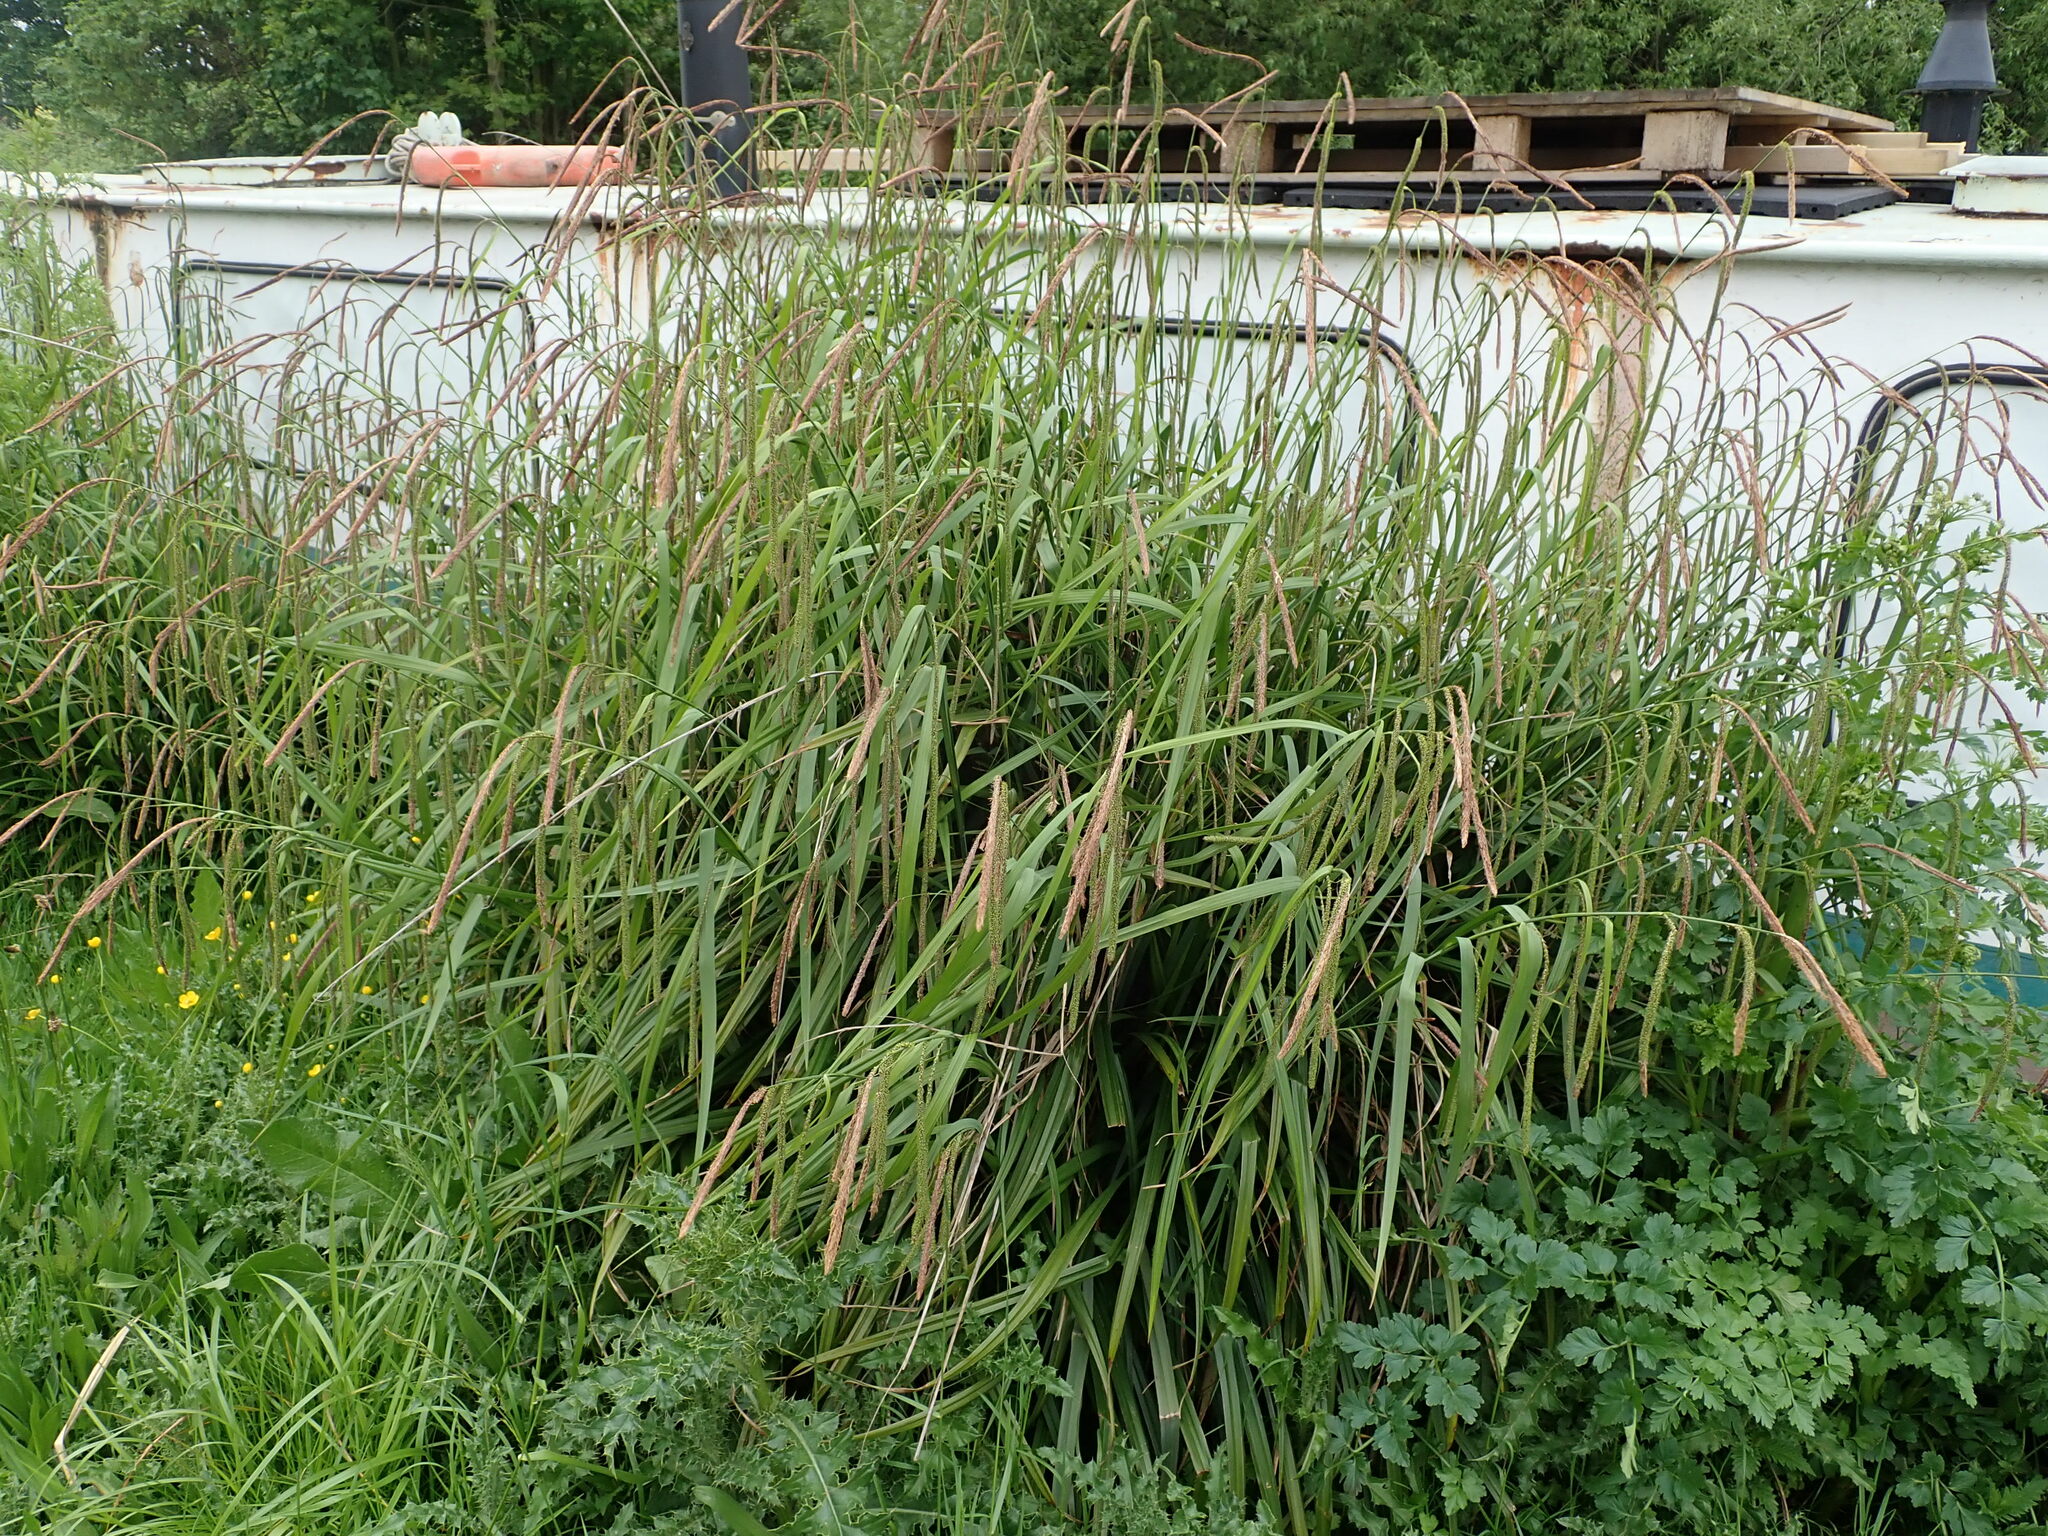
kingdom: Plantae
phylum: Tracheophyta
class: Liliopsida
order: Poales
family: Cyperaceae
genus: Carex
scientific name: Carex pendula
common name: Pendulous sedge
